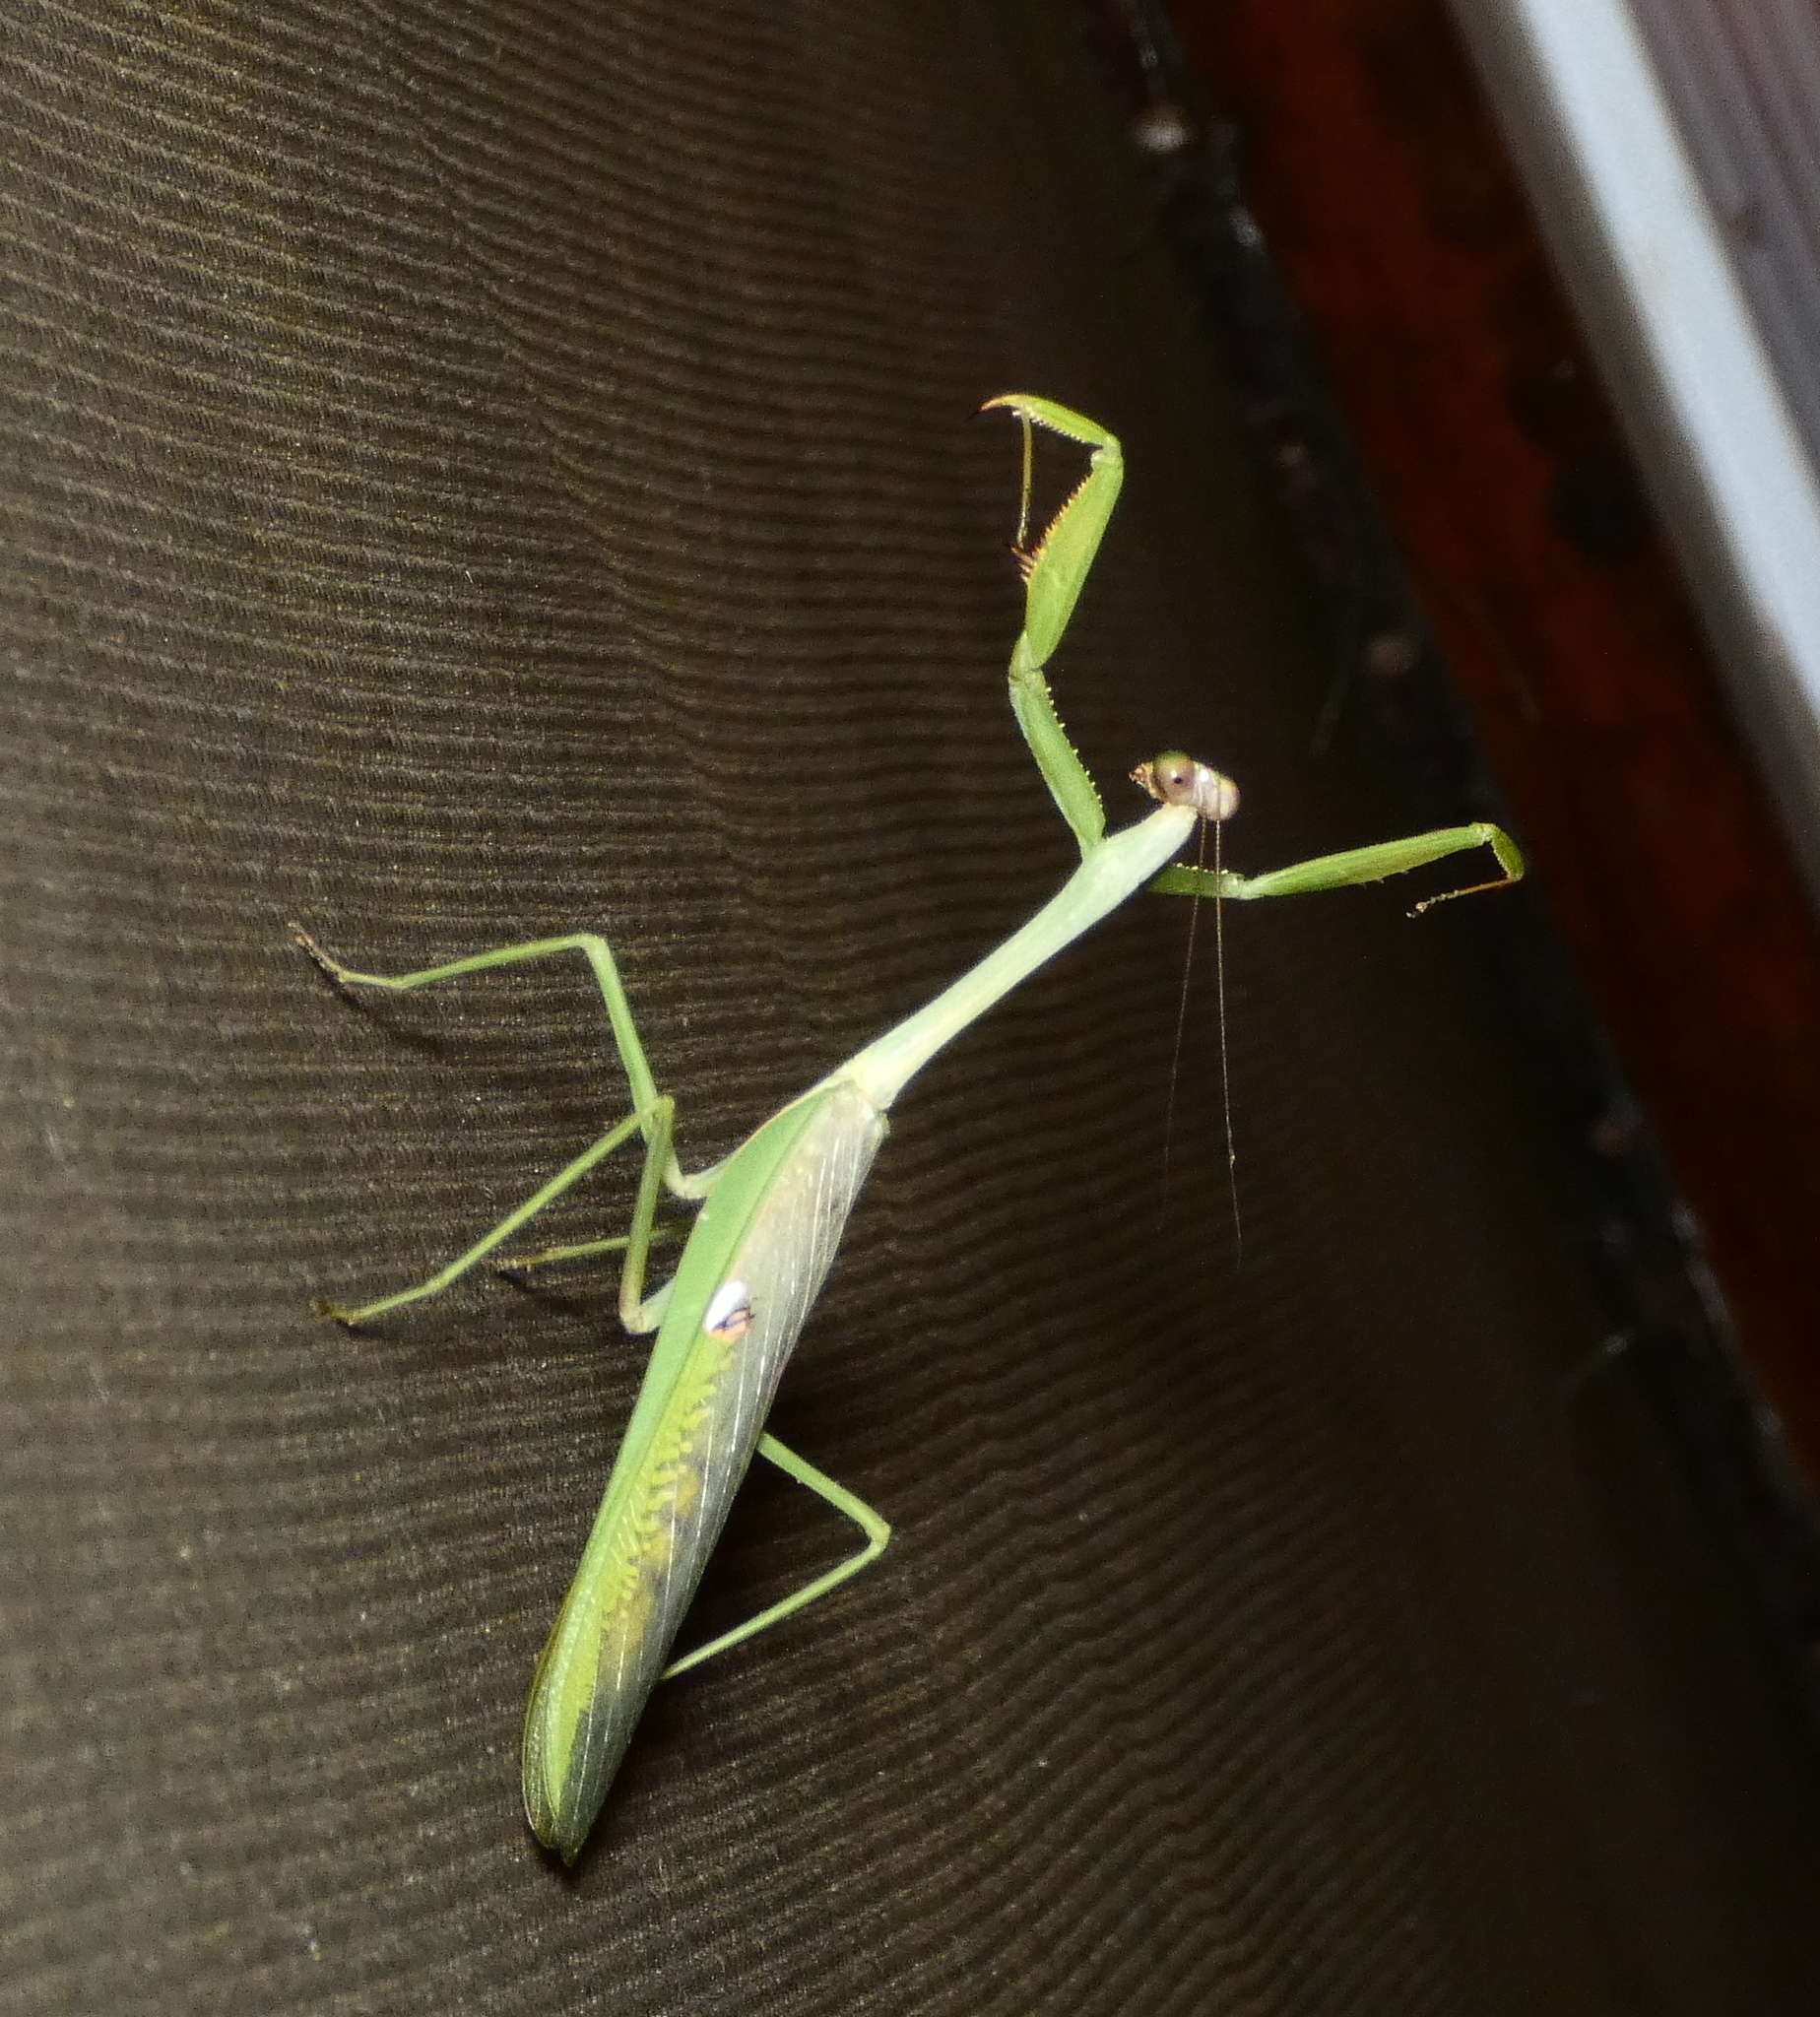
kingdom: Animalia
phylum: Arthropoda
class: Insecta
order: Mantodea
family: Mantidae
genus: Stagmatoptera
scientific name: Stagmatoptera
